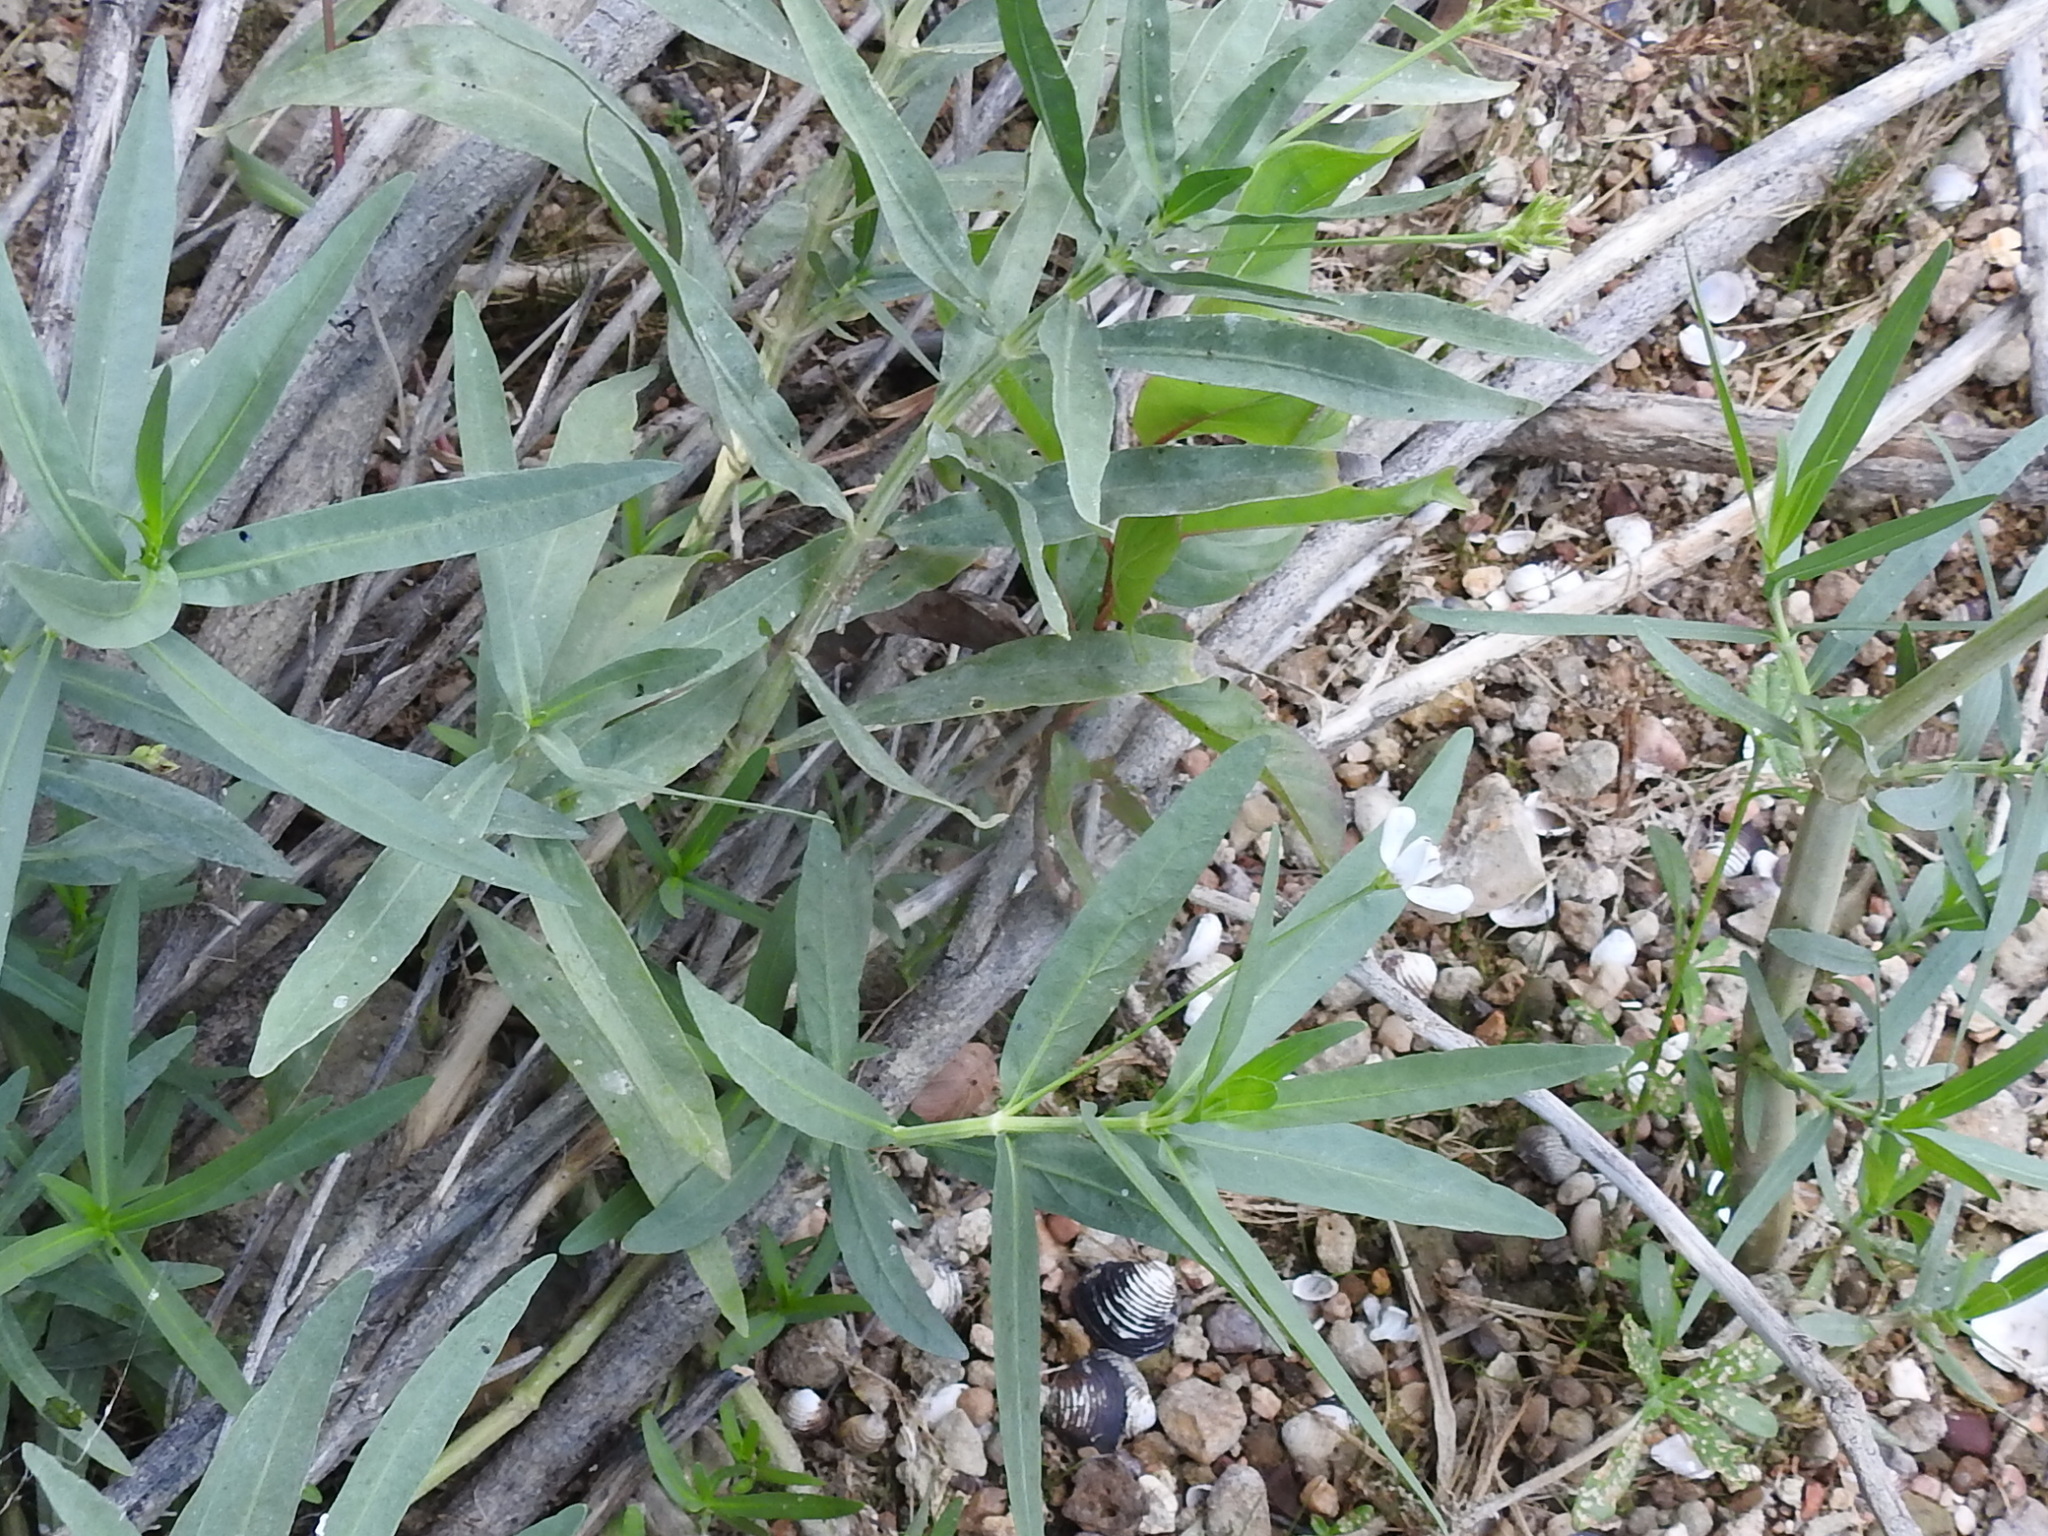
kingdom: Plantae
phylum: Tracheophyta
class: Magnoliopsida
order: Lamiales
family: Acanthaceae
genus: Dianthera
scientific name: Dianthera americana
